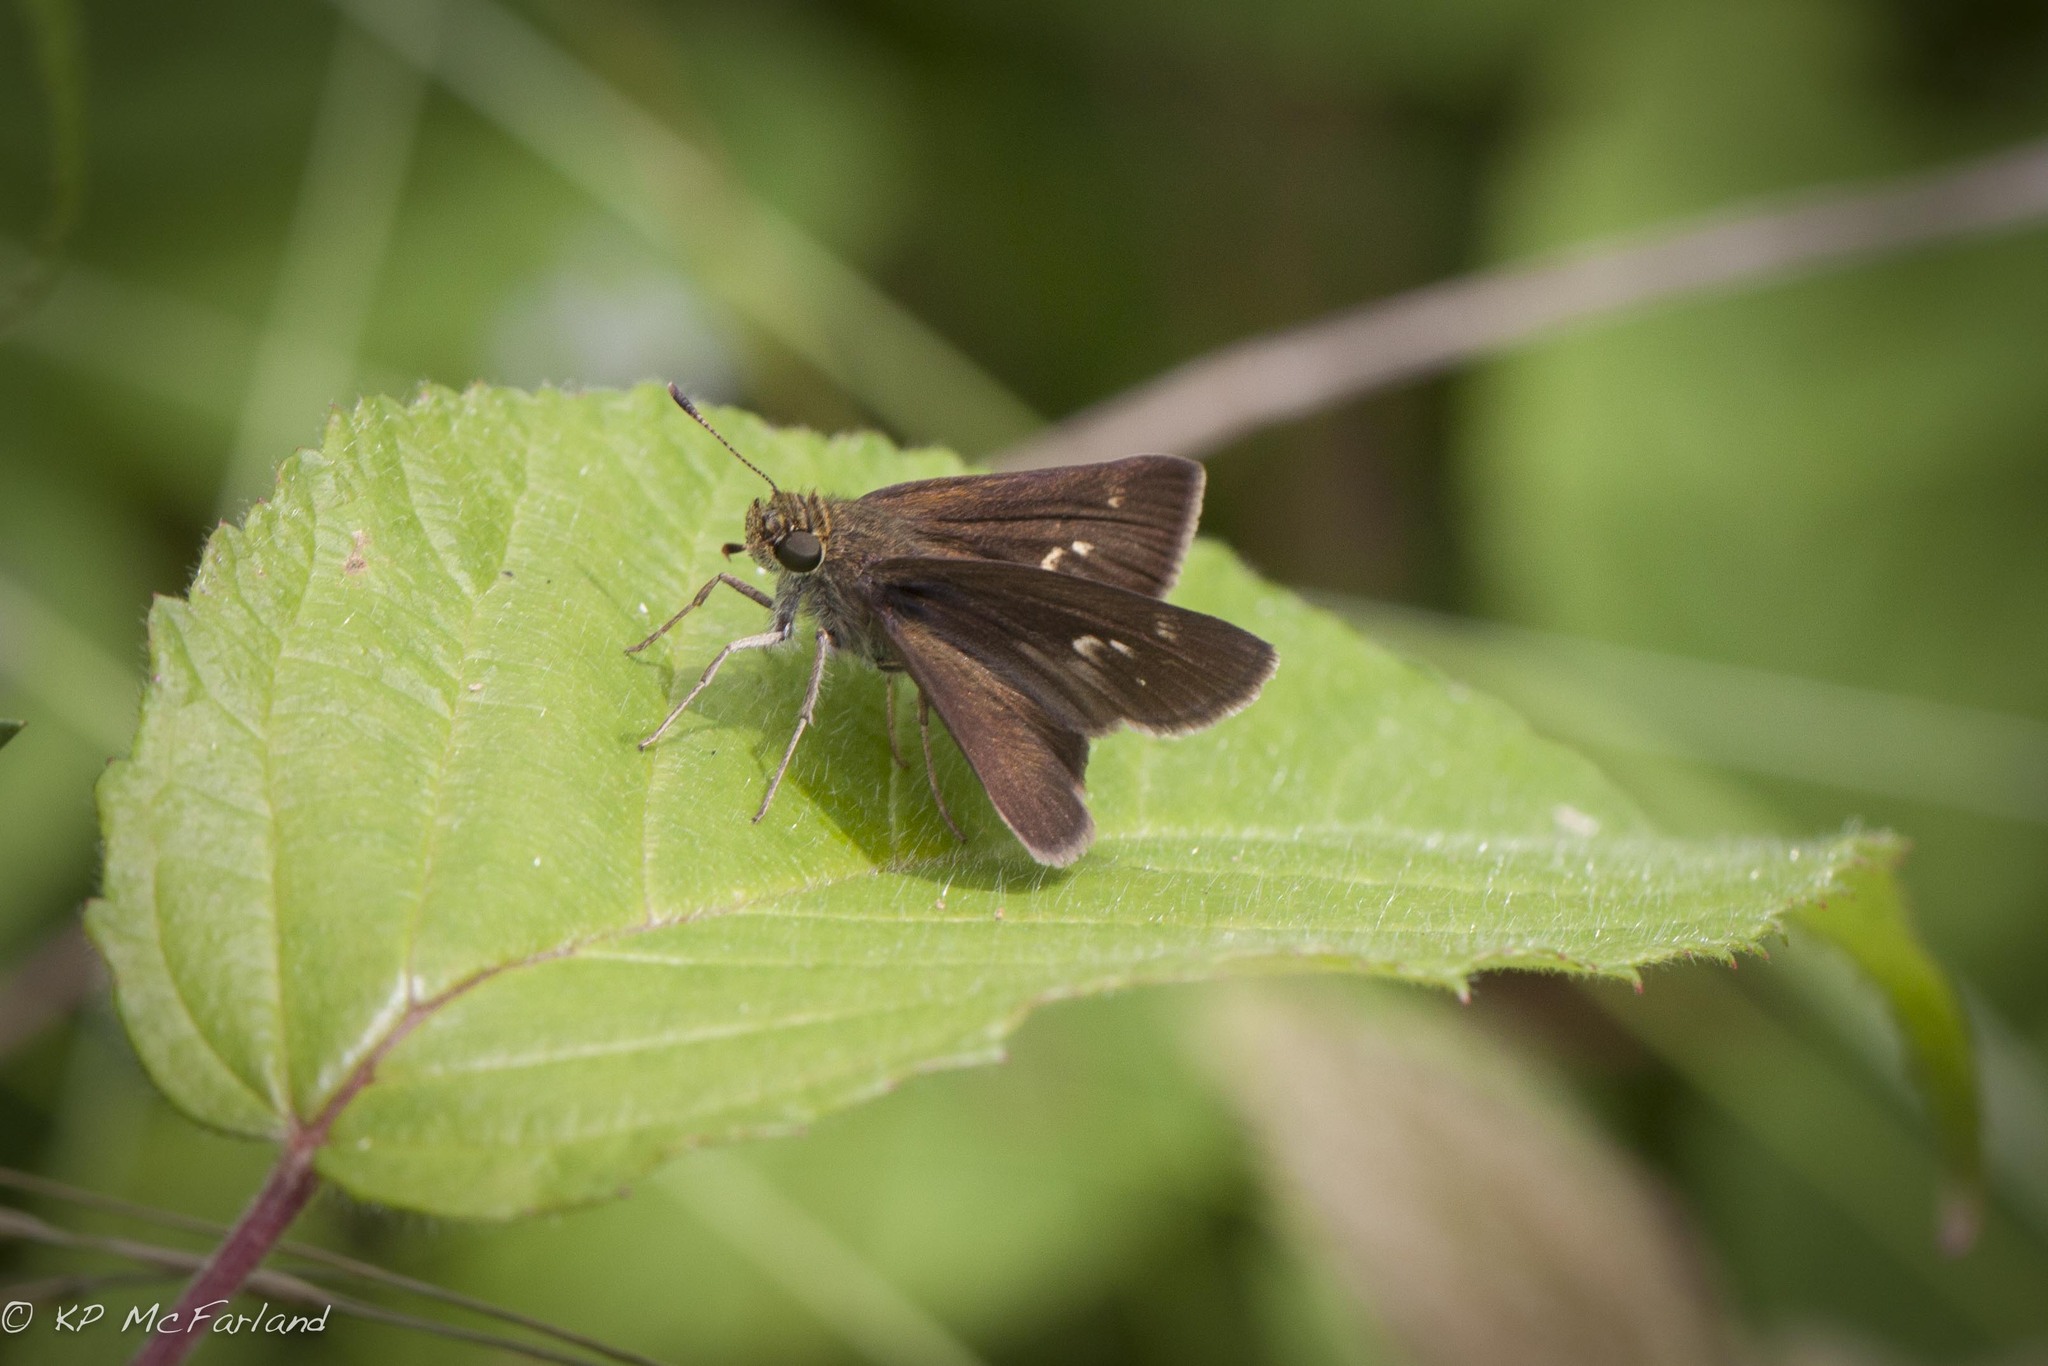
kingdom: Animalia
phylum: Arthropoda
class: Insecta
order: Lepidoptera
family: Hesperiidae
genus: Euphyes
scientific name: Euphyes vestris
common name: Dun skipper
